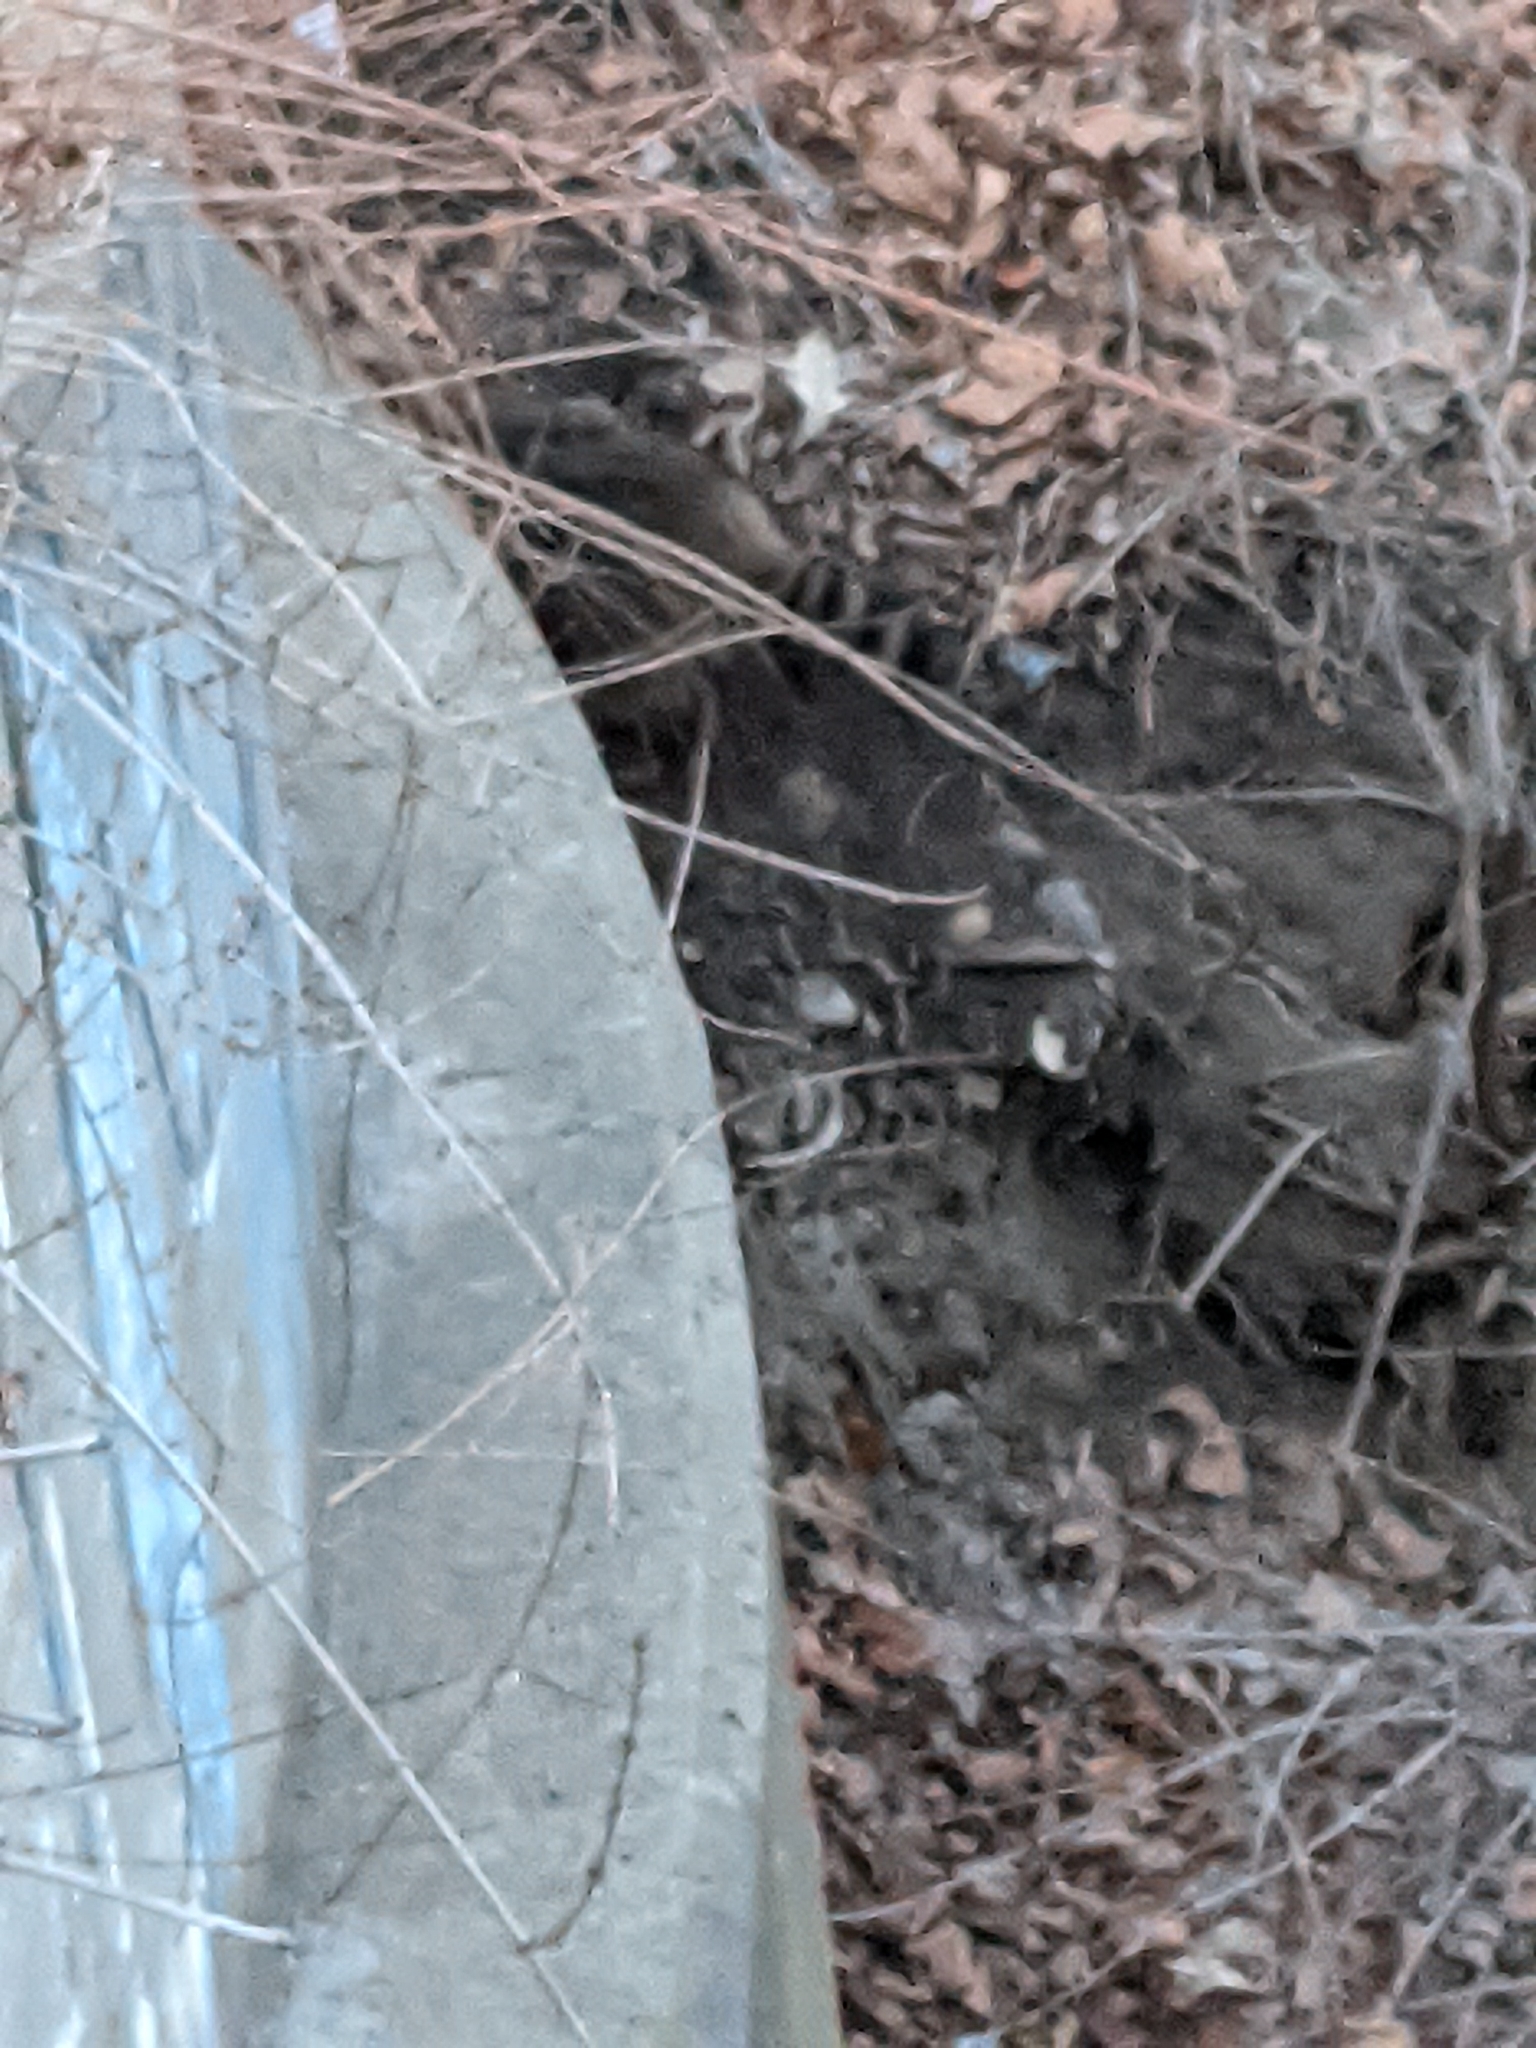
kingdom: Animalia
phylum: Chordata
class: Mammalia
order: Carnivora
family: Procyonidae
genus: Procyon
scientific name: Procyon lotor
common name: Raccoon
